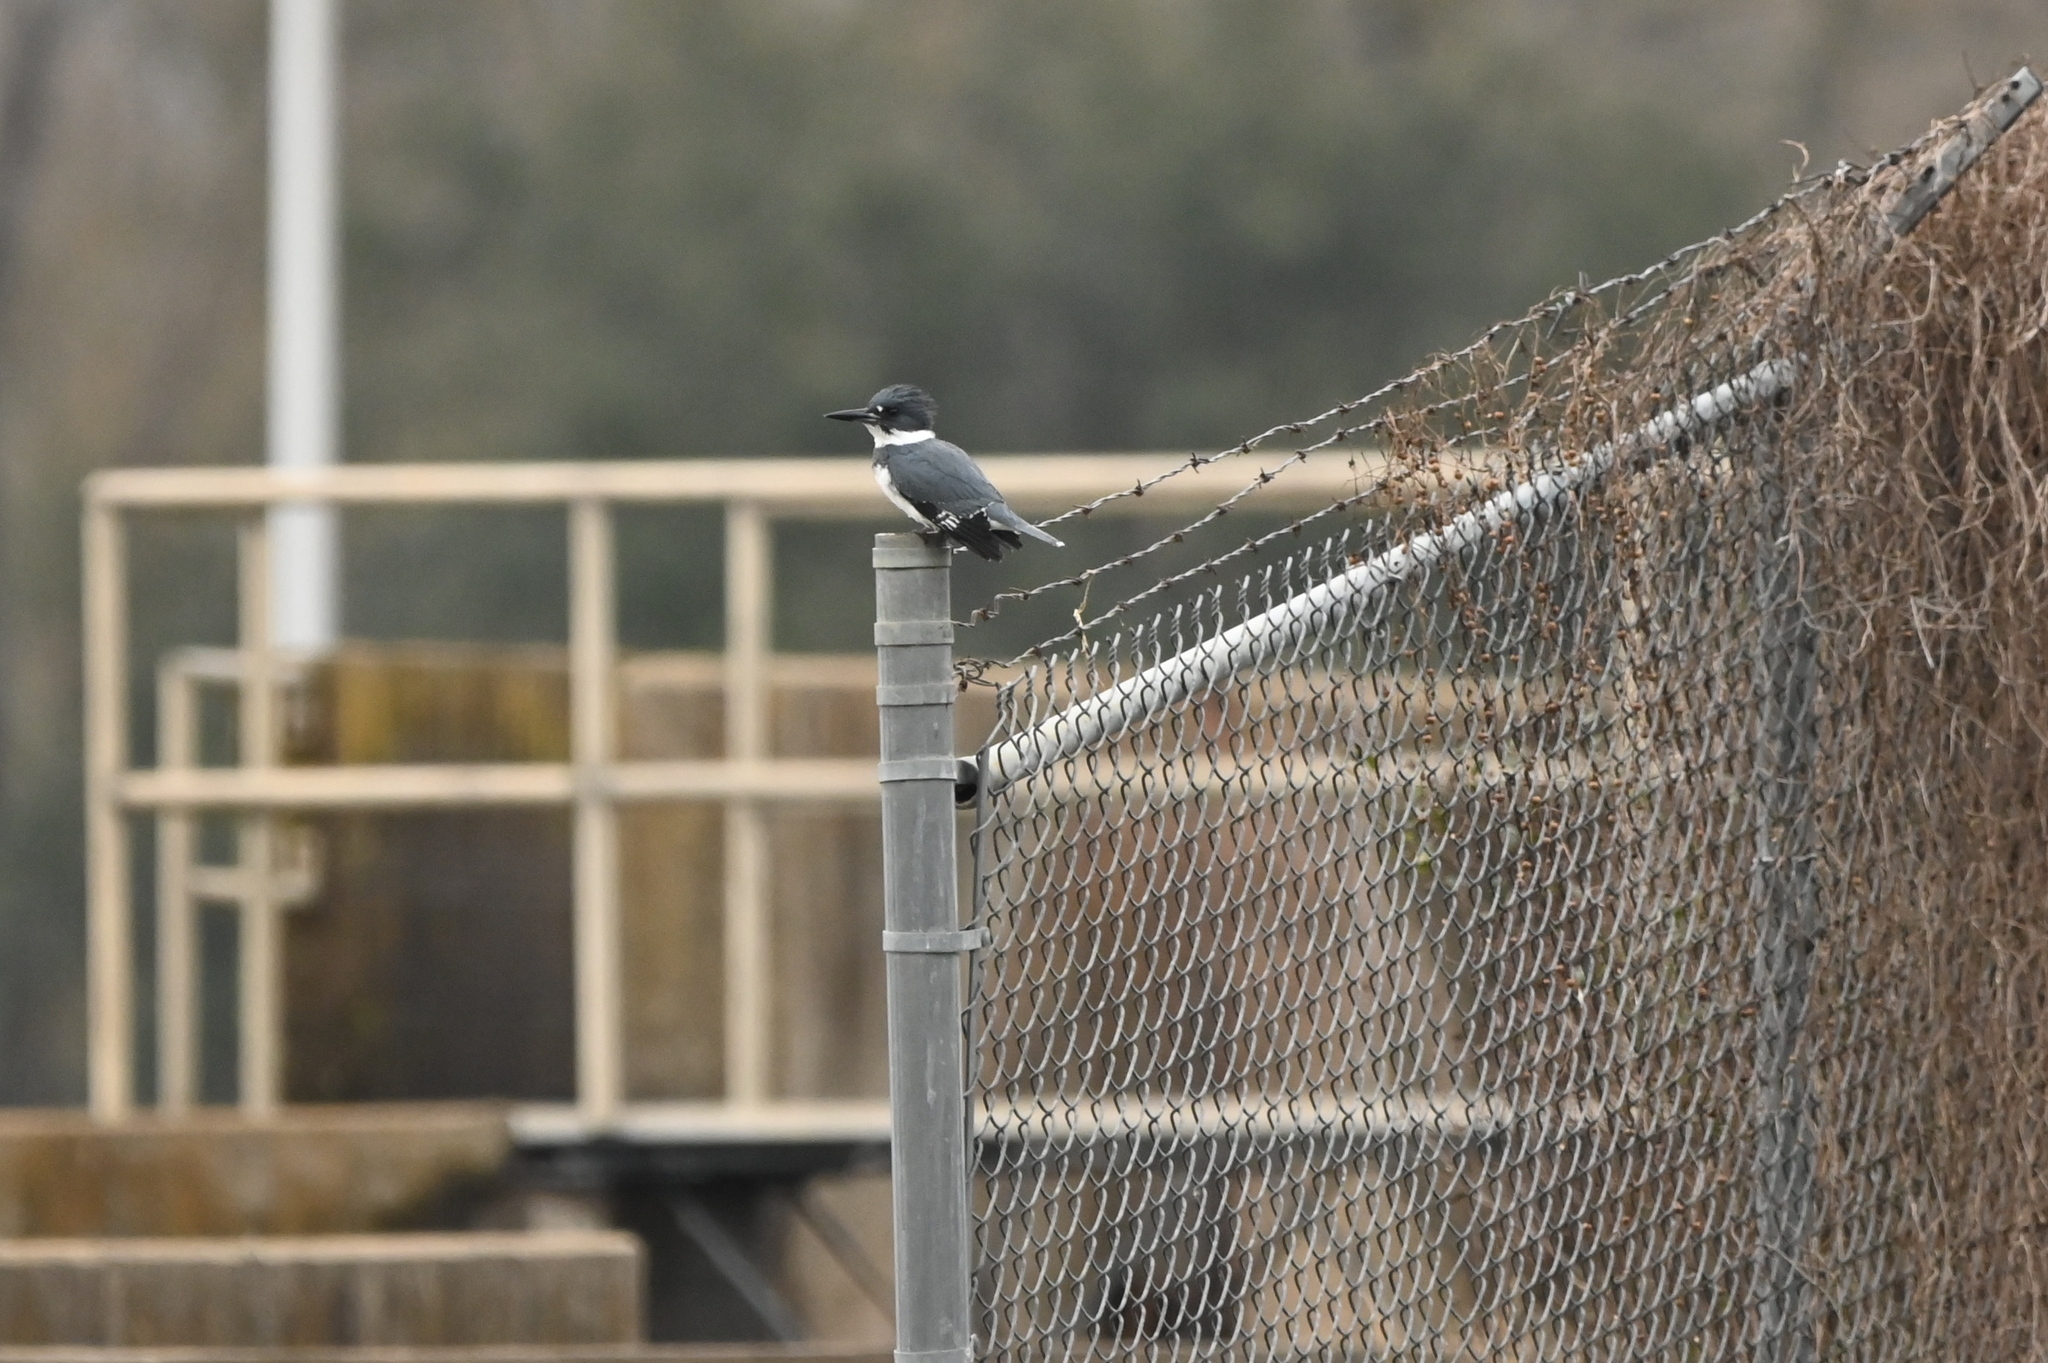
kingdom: Animalia
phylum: Chordata
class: Aves
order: Coraciiformes
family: Alcedinidae
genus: Megaceryle
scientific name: Megaceryle alcyon
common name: Belted kingfisher
